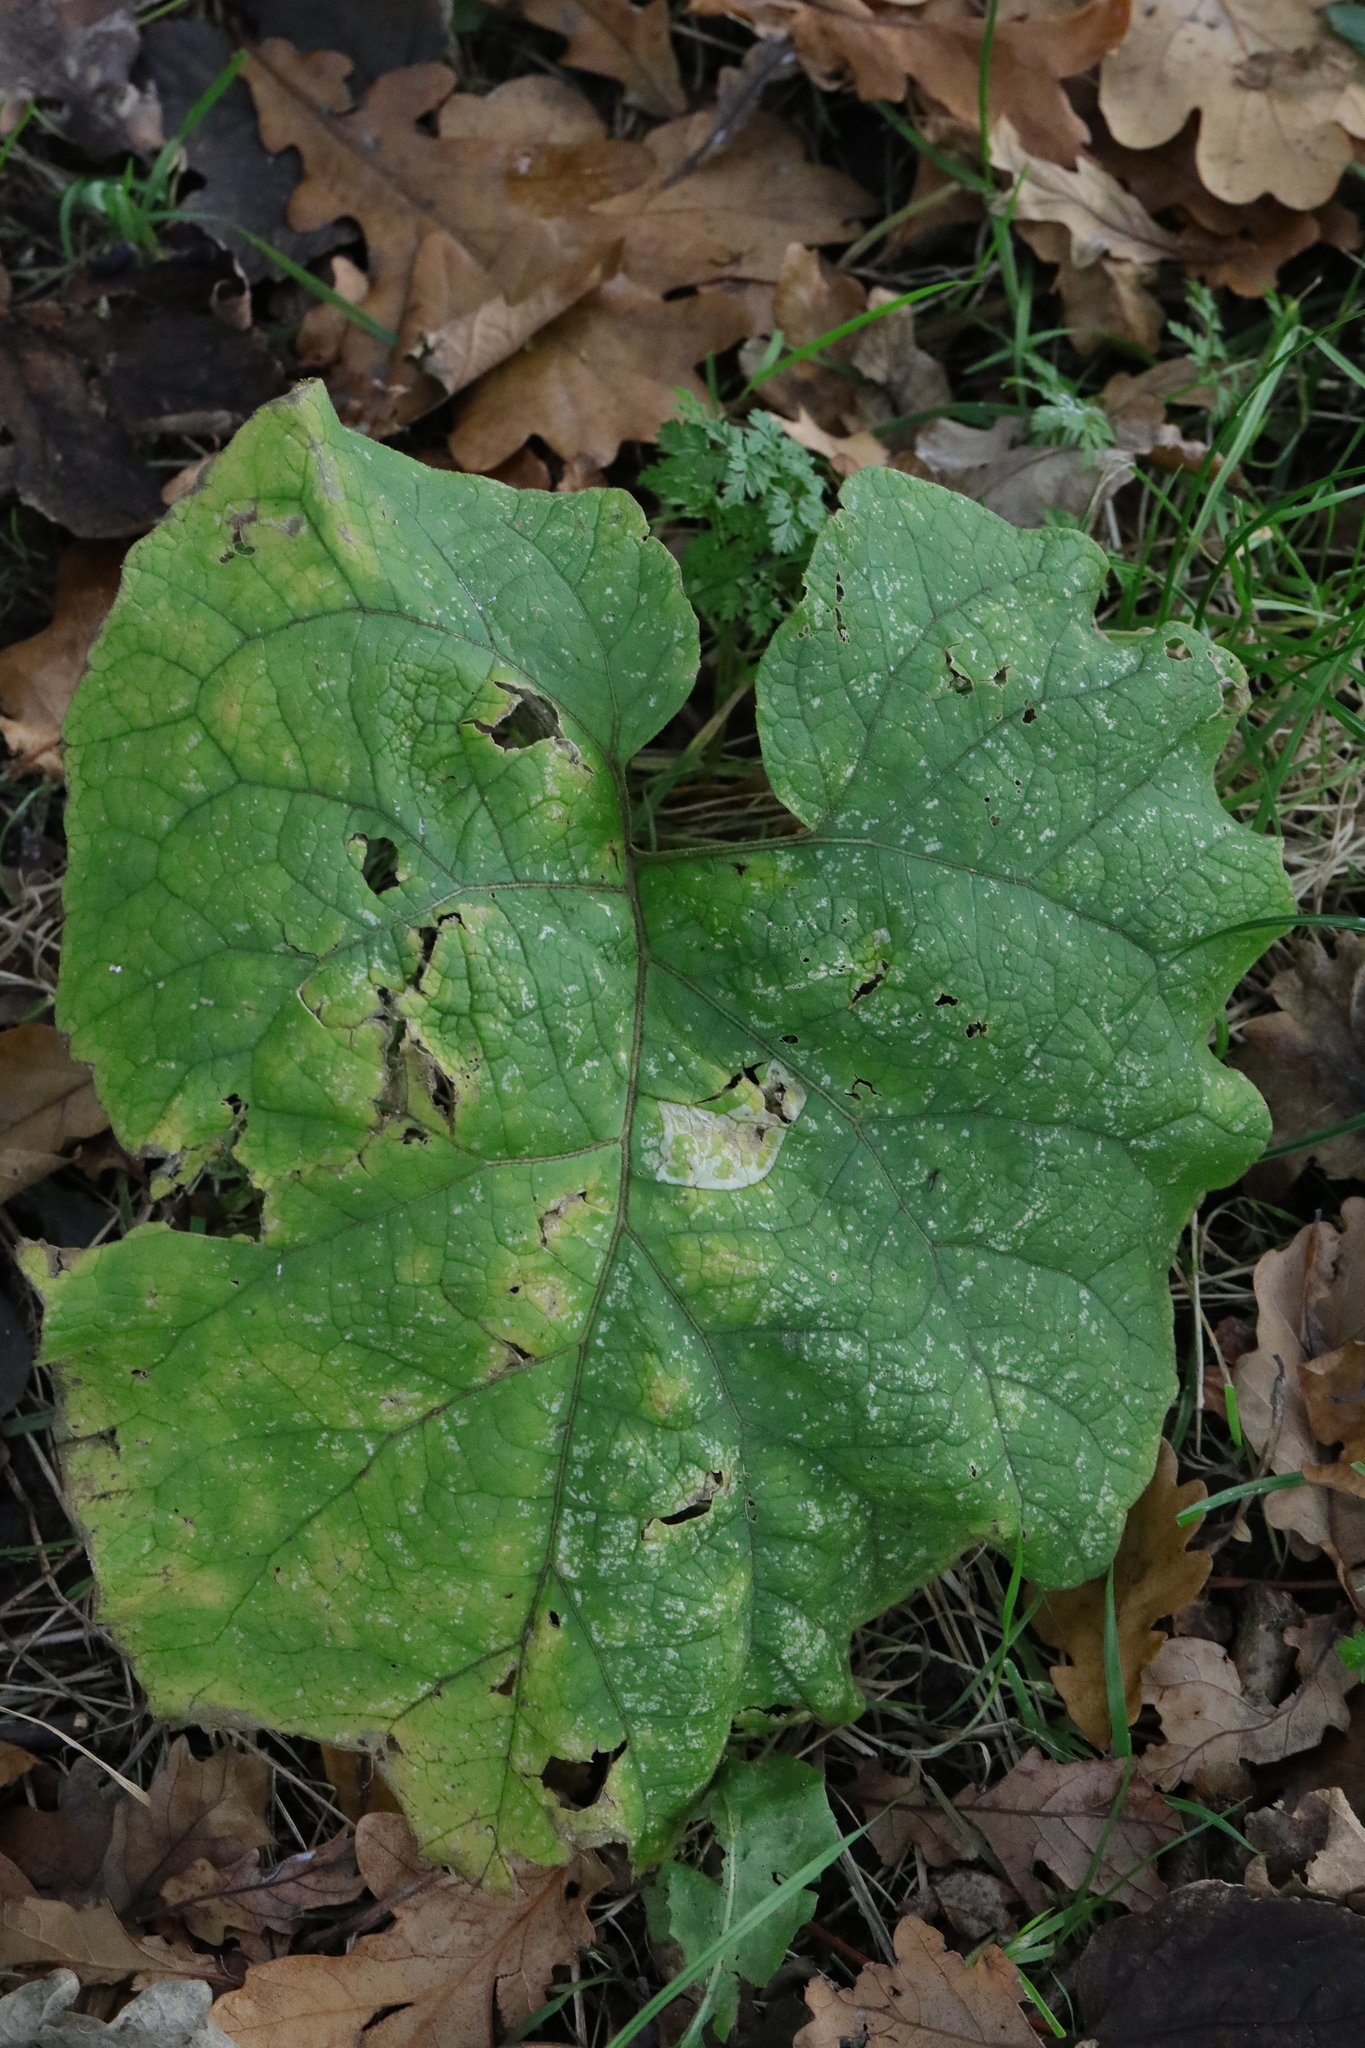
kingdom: Plantae
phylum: Tracheophyta
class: Magnoliopsida
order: Asterales
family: Asteraceae
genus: Arctium
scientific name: Arctium minus
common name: Lesser burdock
